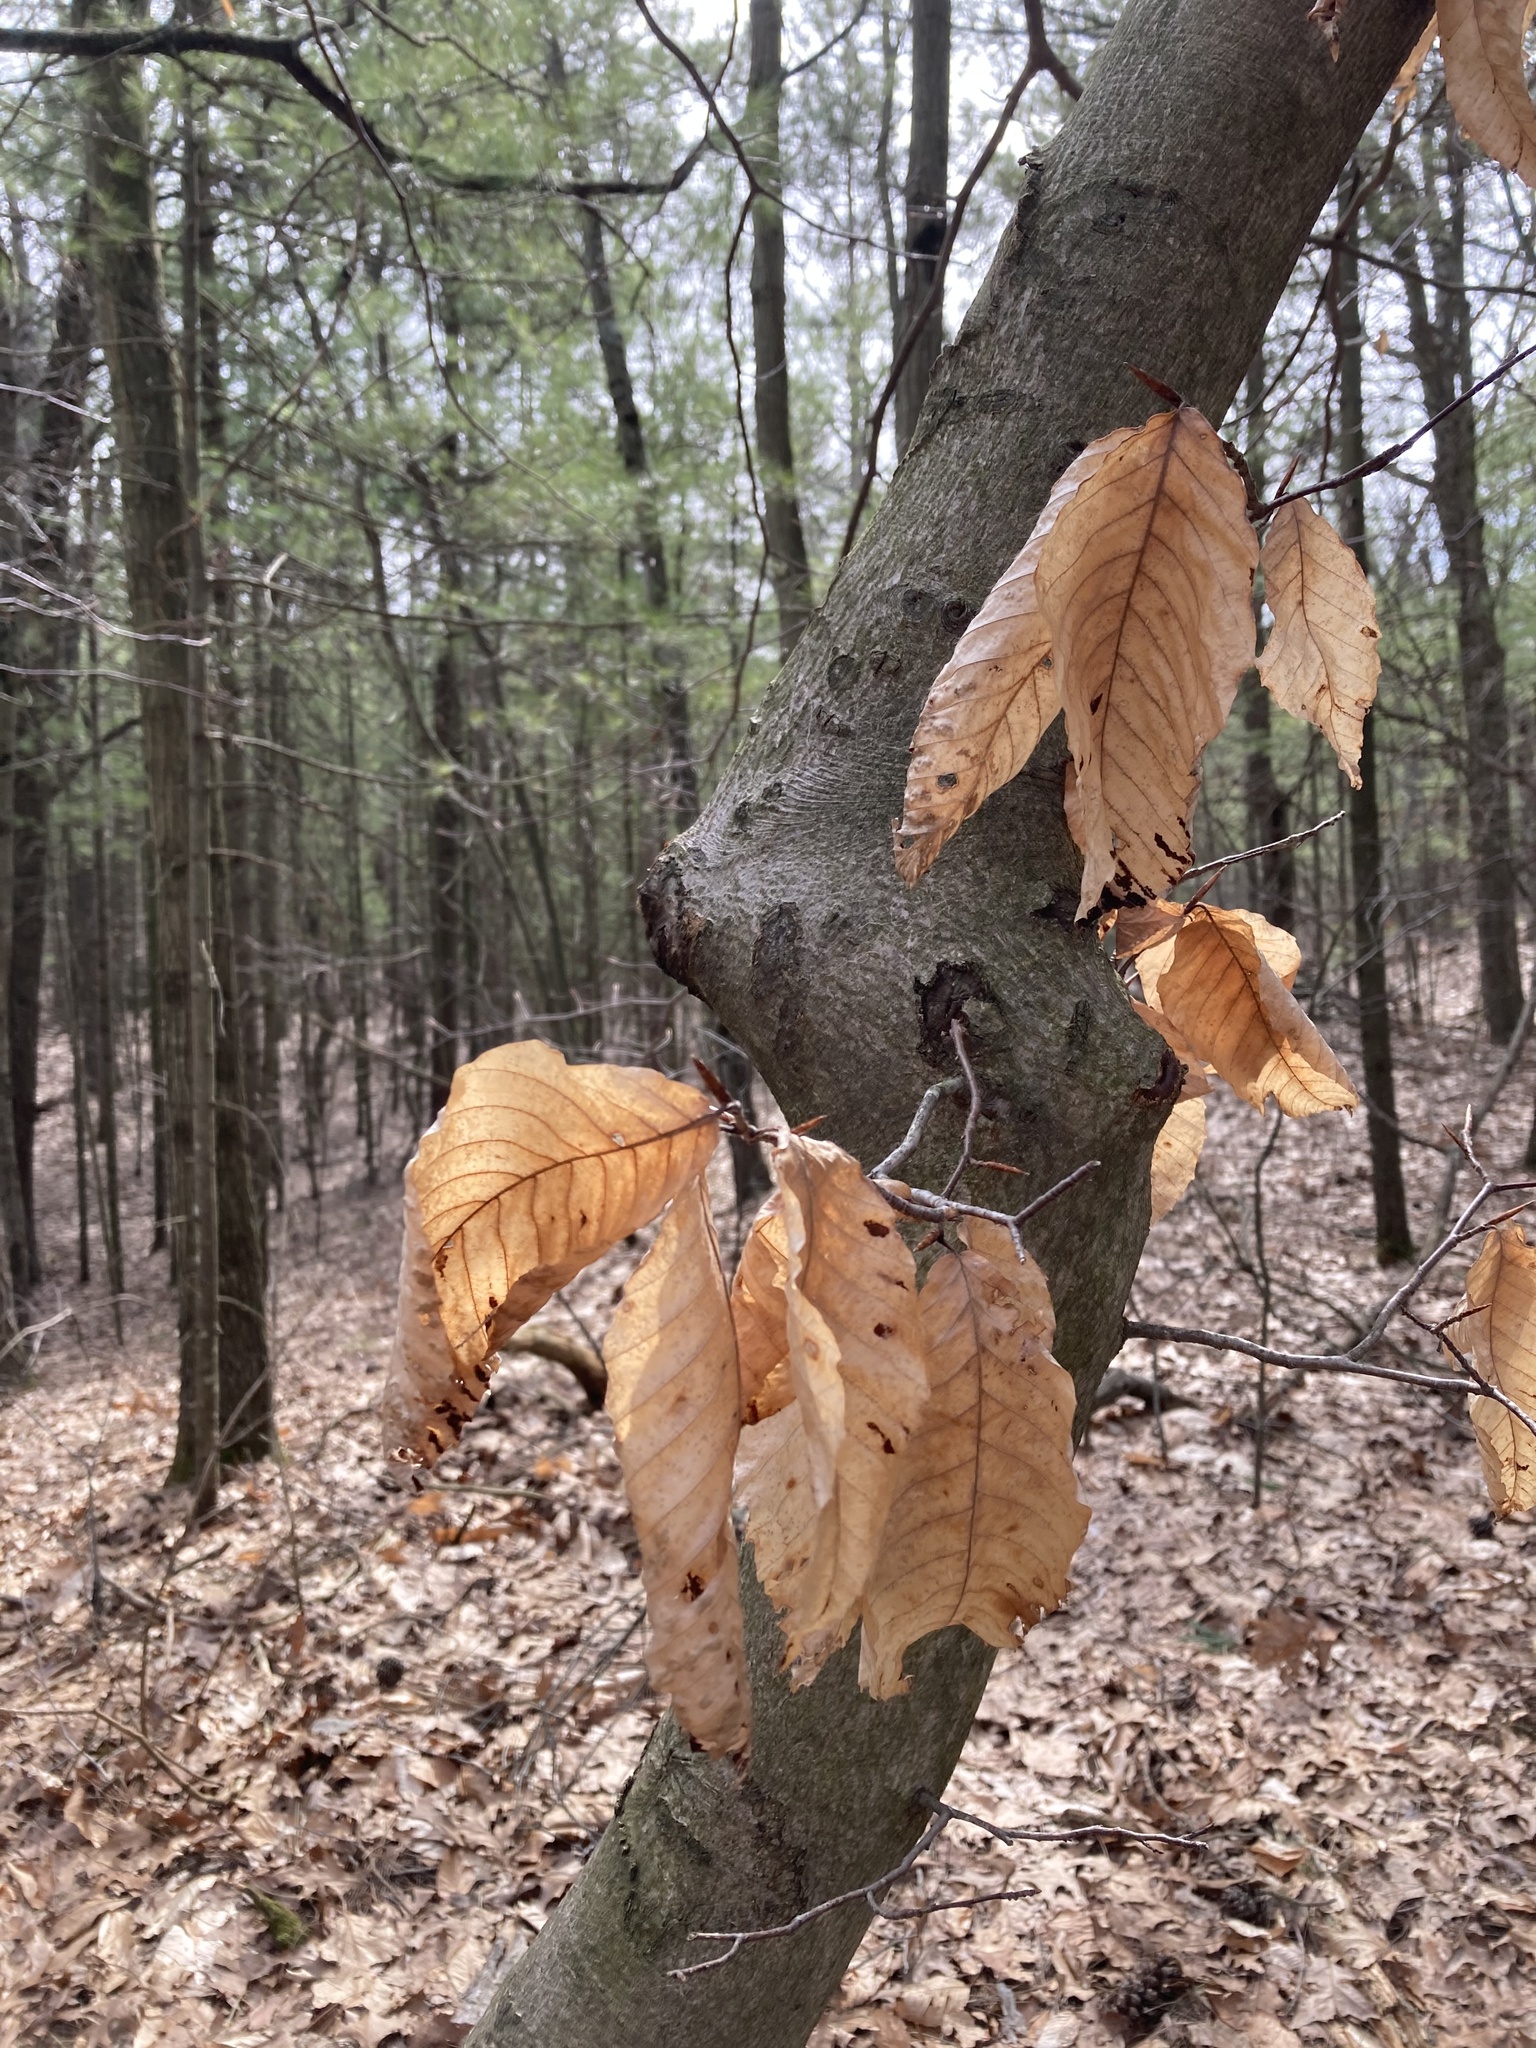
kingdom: Plantae
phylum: Tracheophyta
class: Magnoliopsida
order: Fagales
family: Fagaceae
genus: Fagus
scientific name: Fagus grandifolia
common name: American beech
